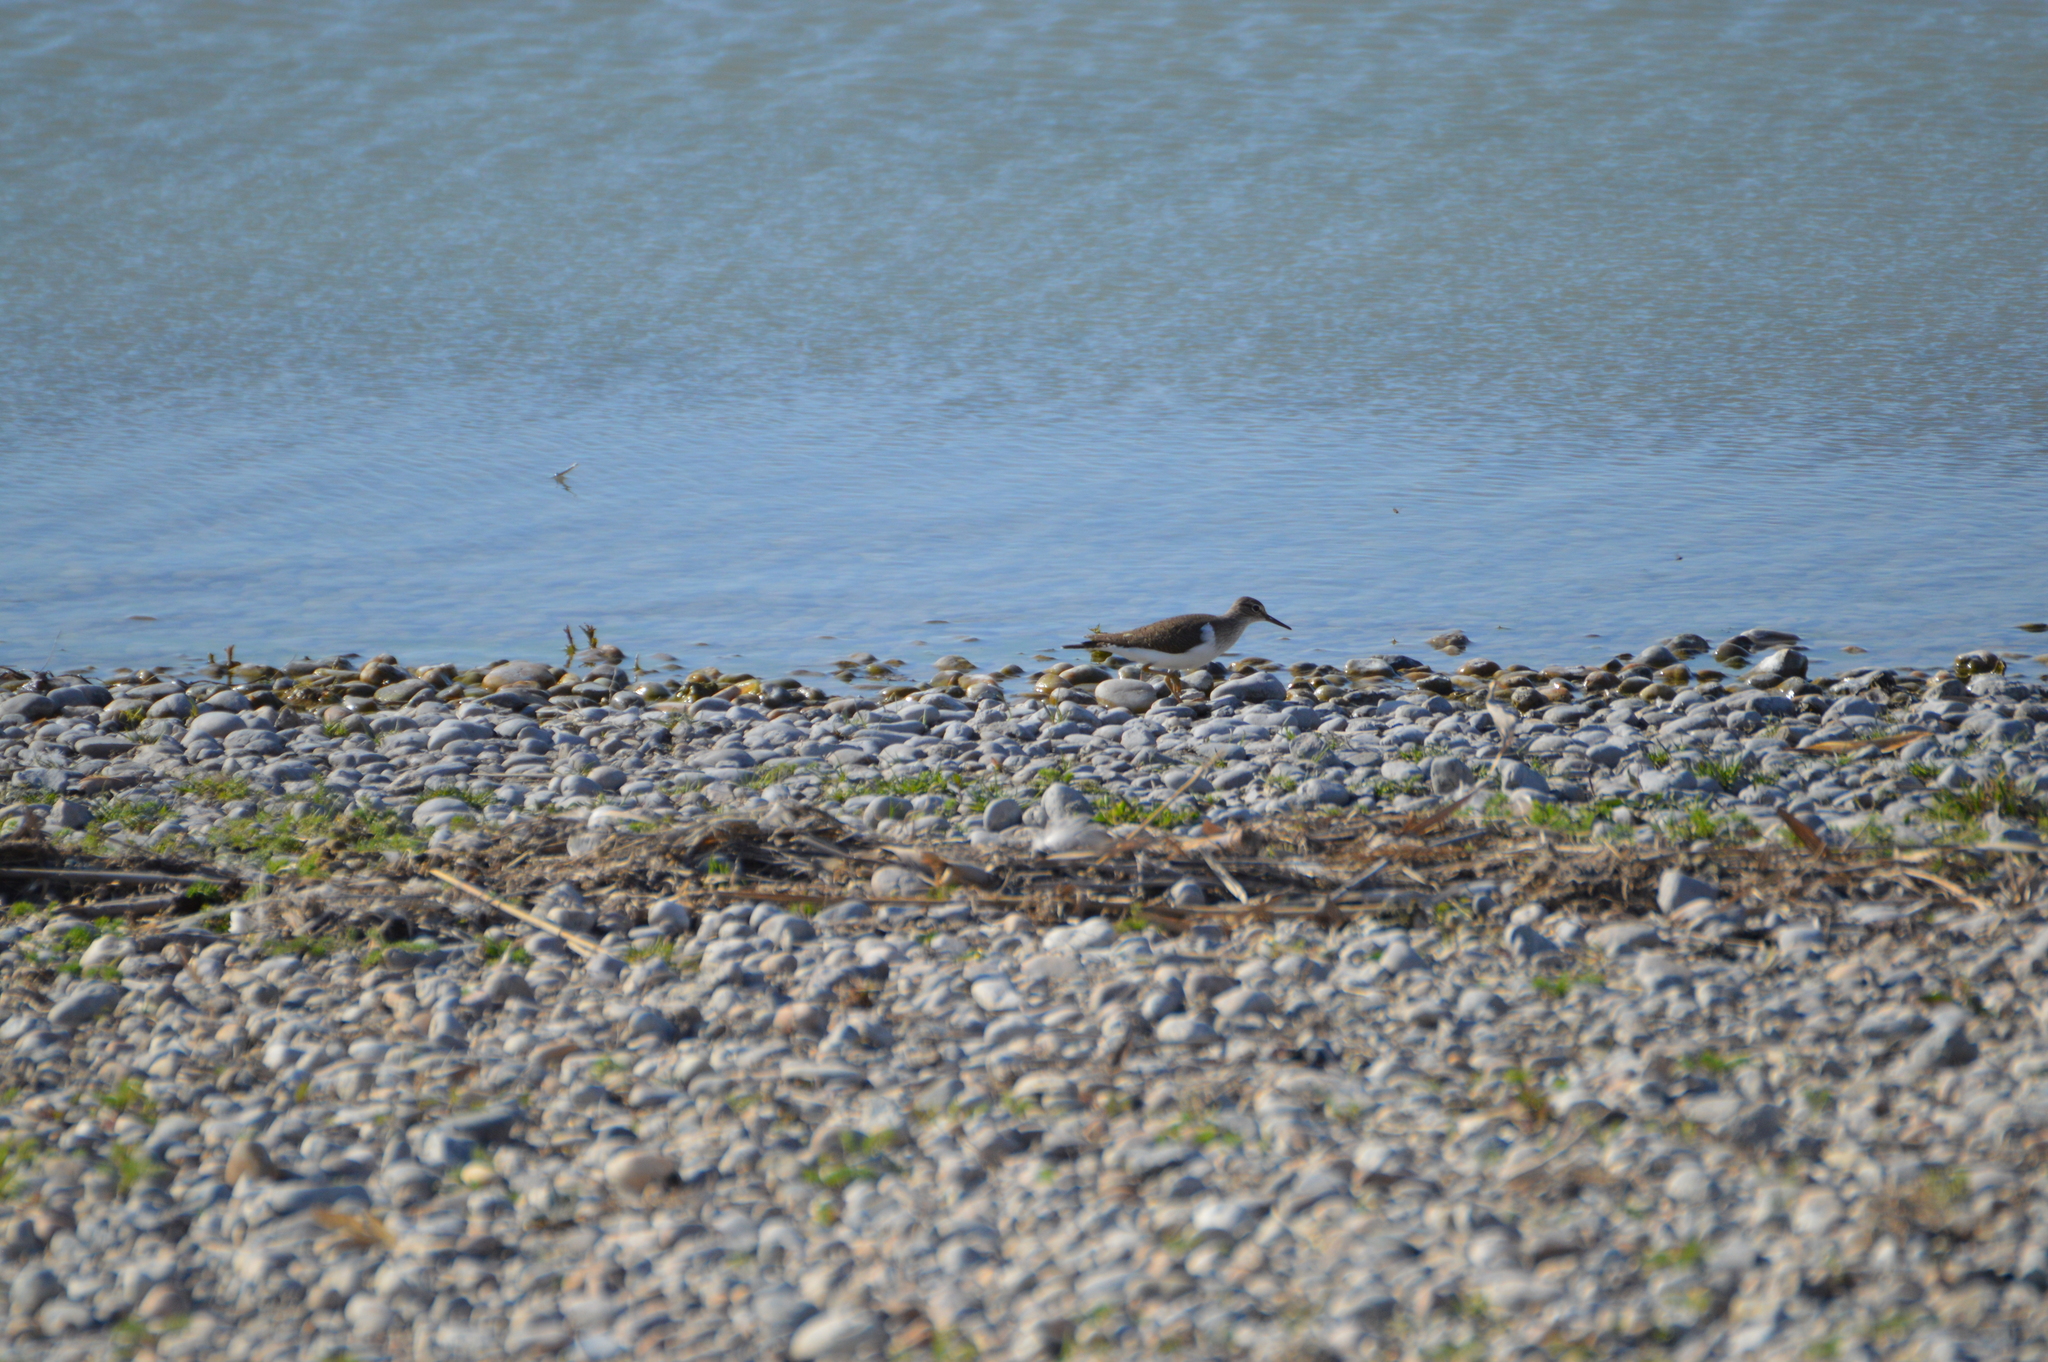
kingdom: Animalia
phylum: Chordata
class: Aves
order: Charadriiformes
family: Scolopacidae
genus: Actitis
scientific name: Actitis hypoleucos
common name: Common sandpiper
